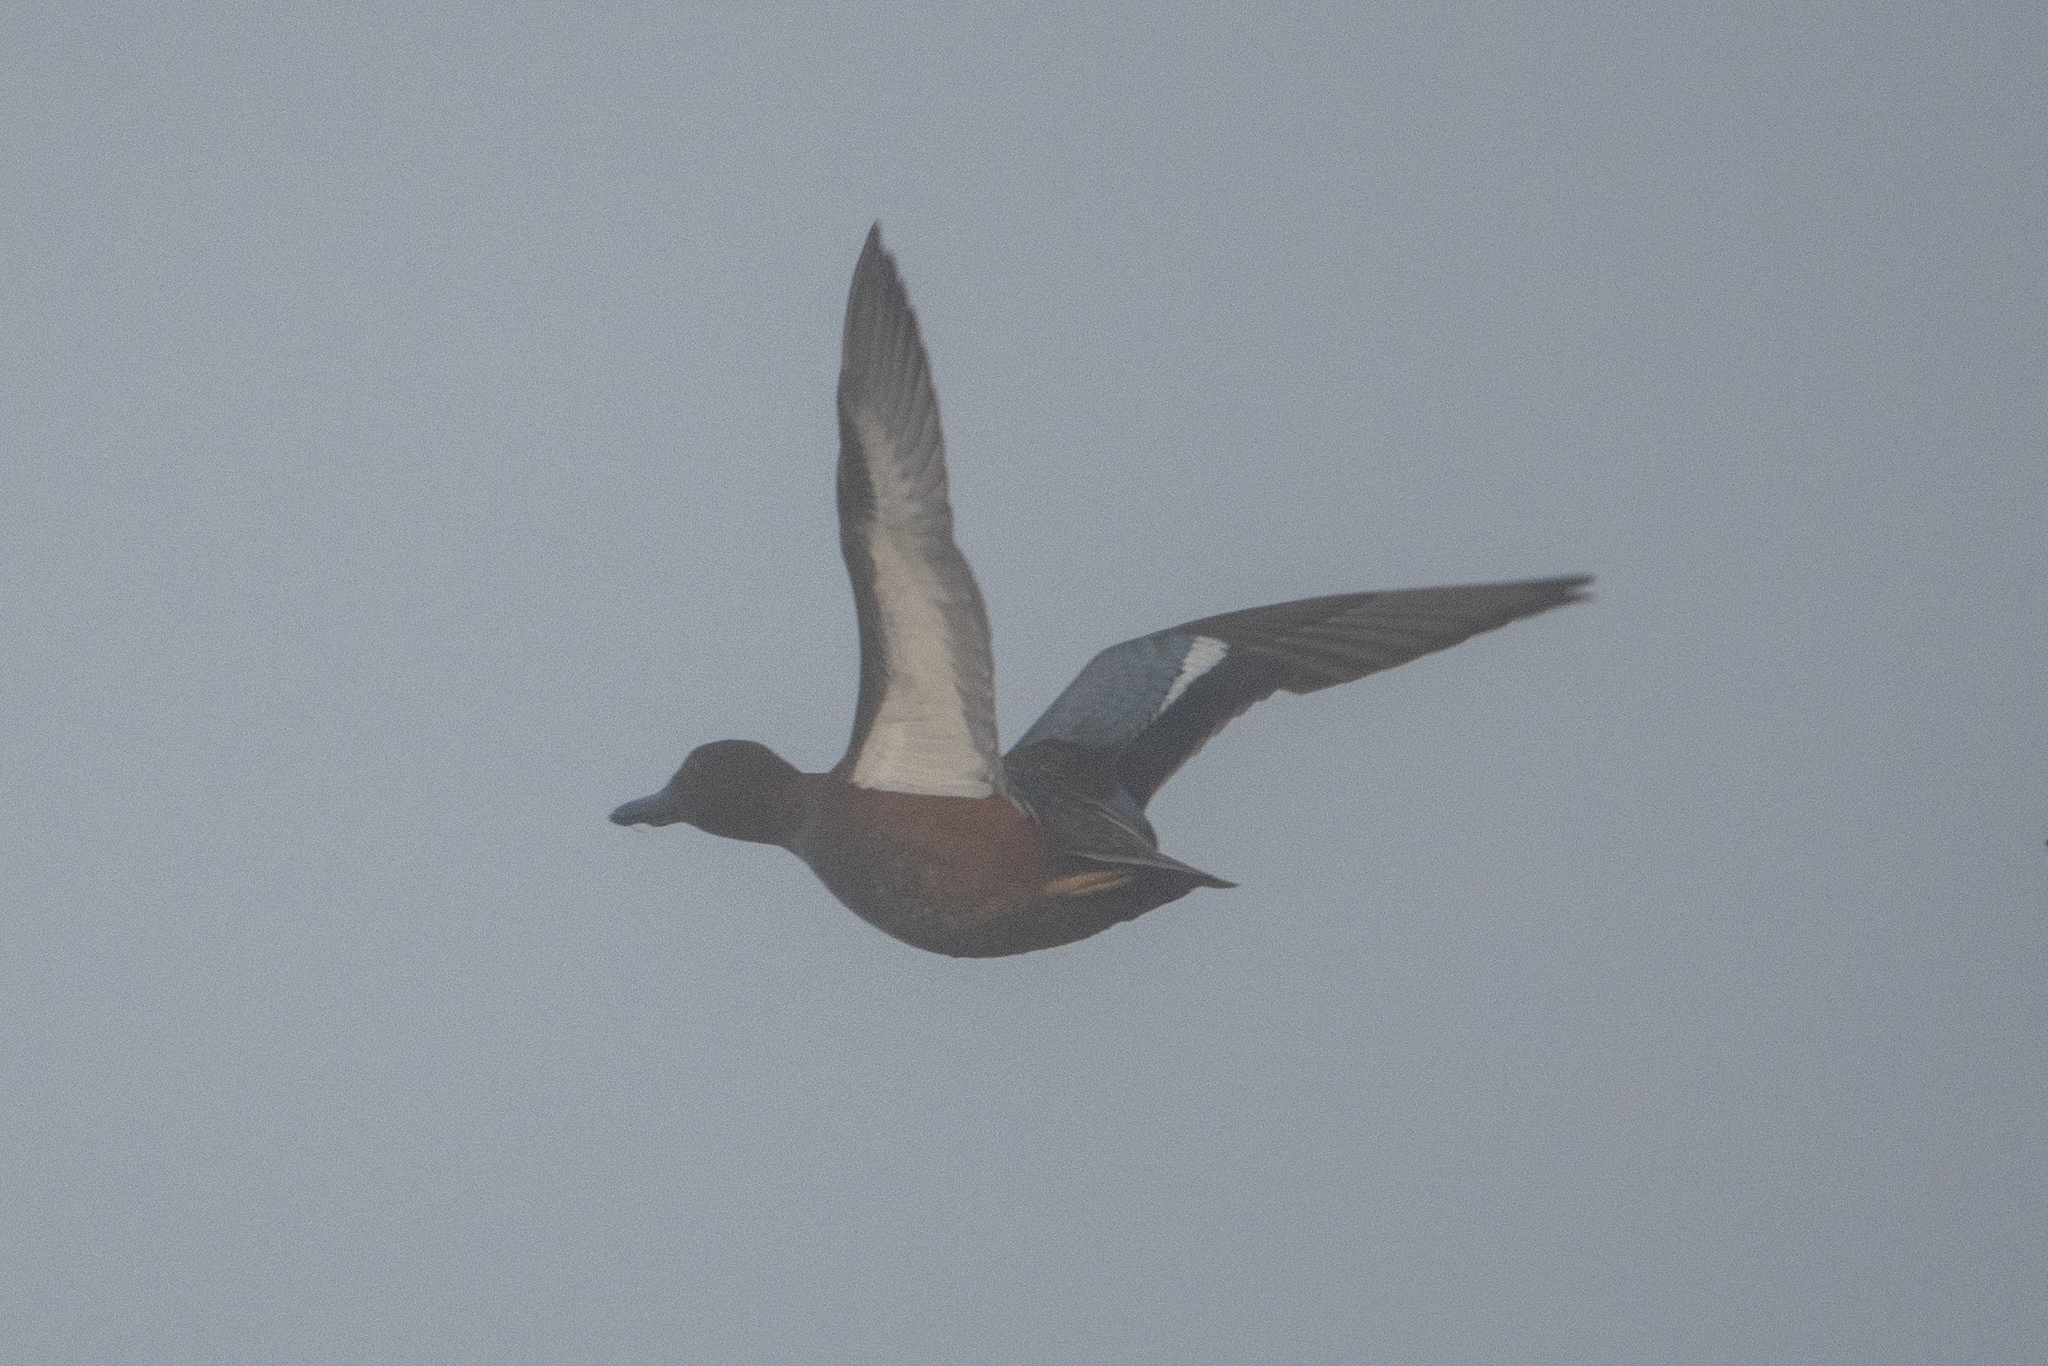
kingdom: Animalia
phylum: Chordata
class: Aves
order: Anseriformes
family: Anatidae
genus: Spatula
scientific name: Spatula cyanoptera
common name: Cinnamon teal
